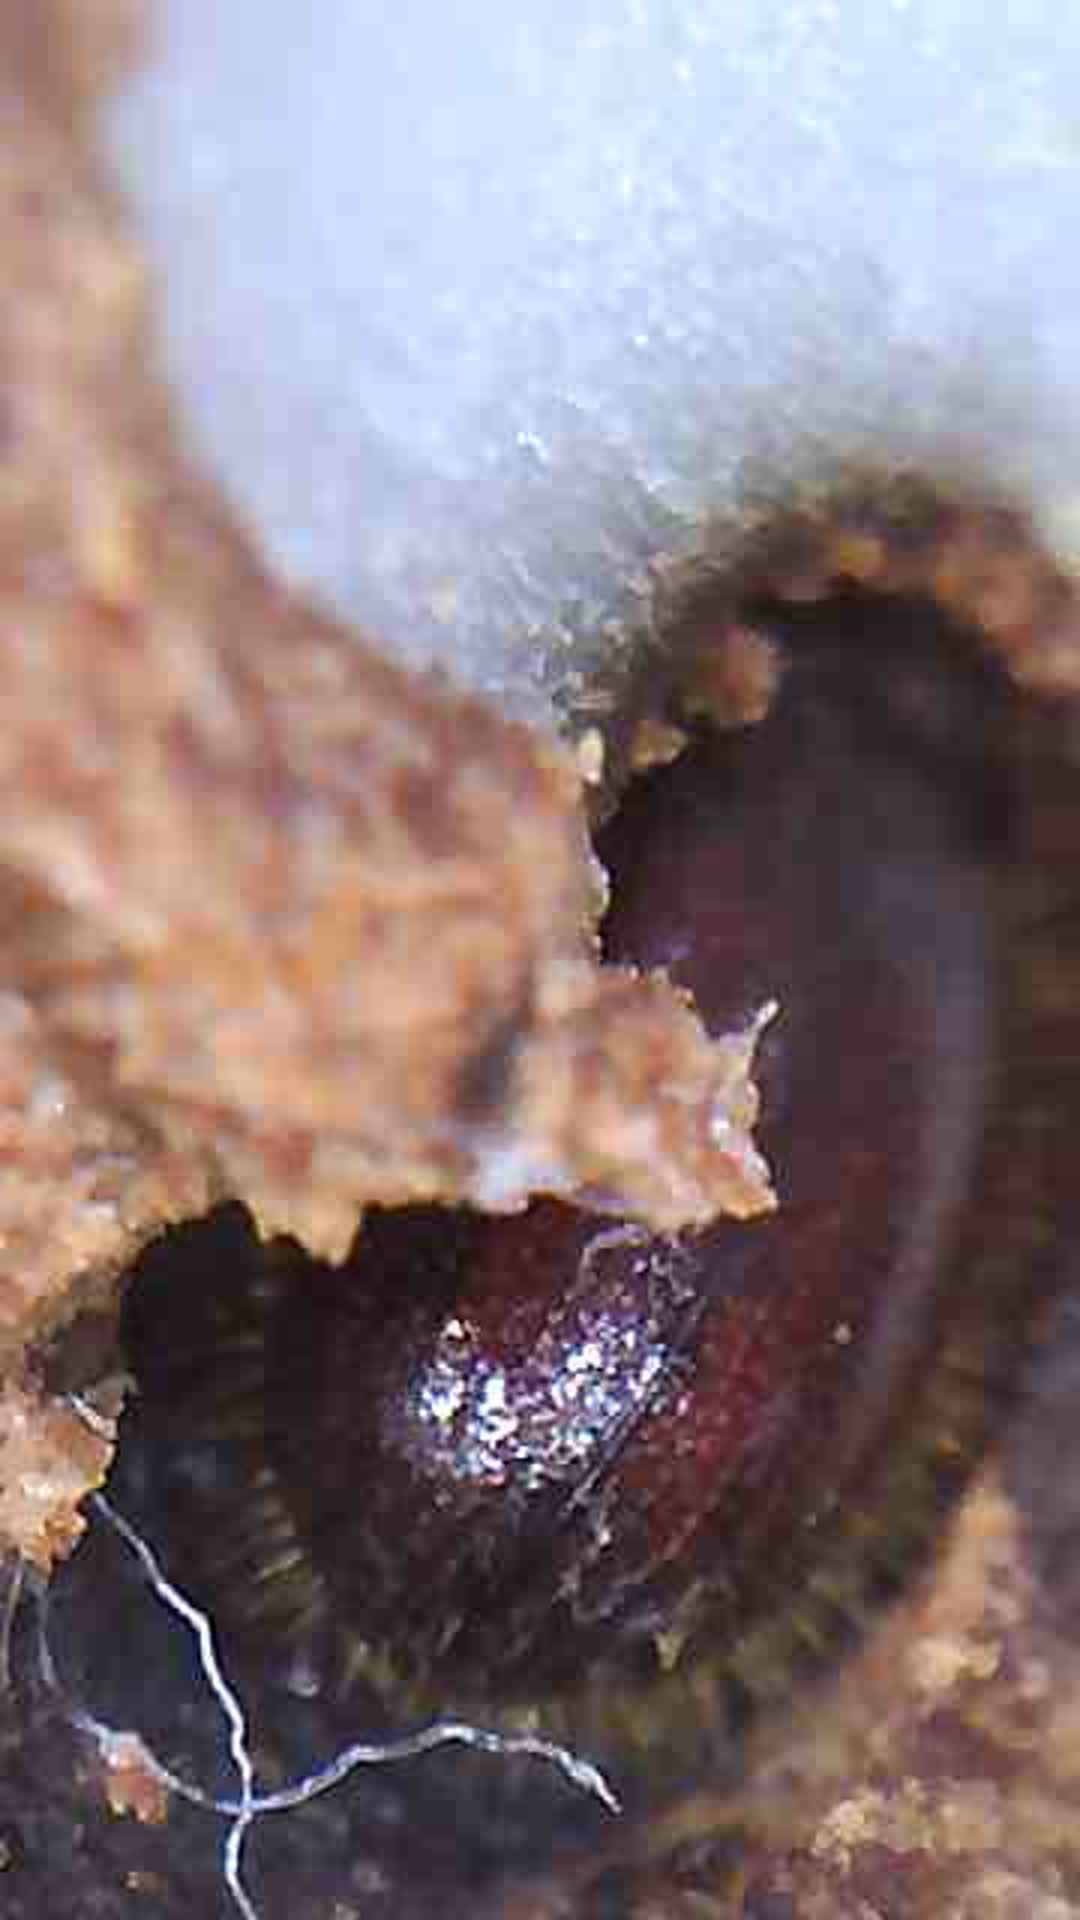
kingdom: Animalia
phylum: Arthropoda
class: Insecta
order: Coleoptera
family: Curculionidae
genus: Coccotrypes
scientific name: Coccotrypes dactyliperda
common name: Bark beetle
